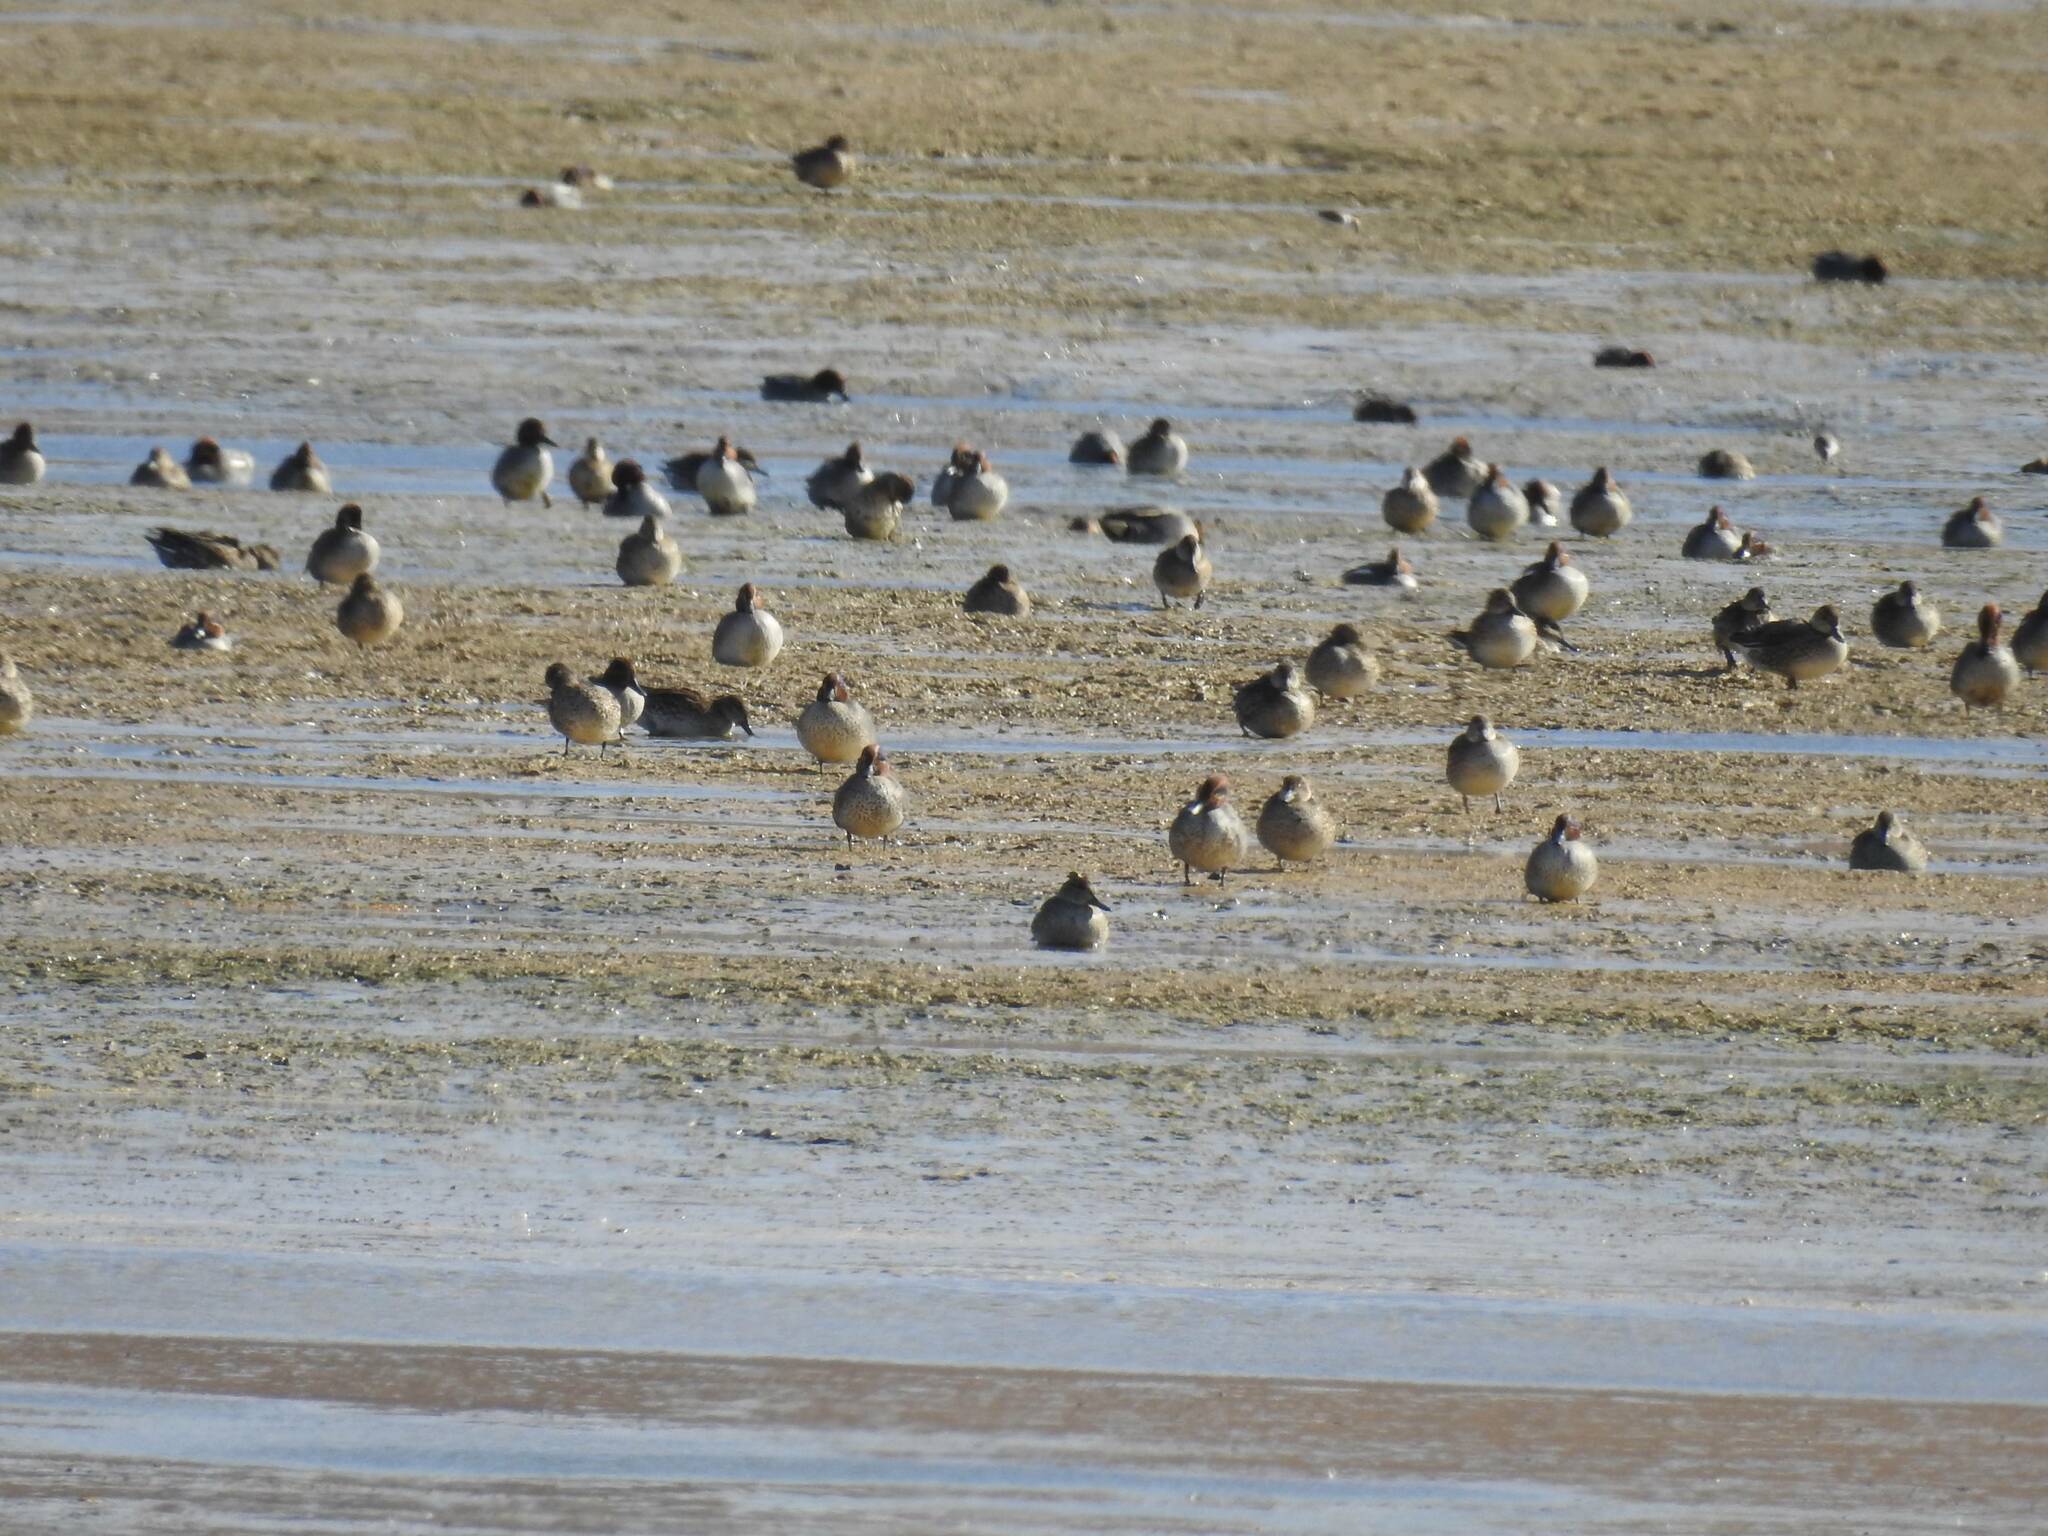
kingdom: Animalia
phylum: Chordata
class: Aves
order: Anseriformes
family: Anatidae
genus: Anas
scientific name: Anas crecca
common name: Eurasian teal
